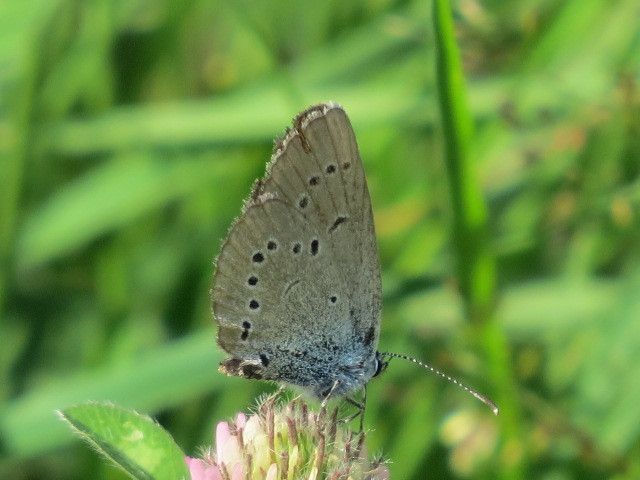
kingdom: Animalia
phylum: Arthropoda
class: Insecta
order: Lepidoptera
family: Lycaenidae
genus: Cyaniris
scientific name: Cyaniris semiargus
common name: Mazarine blue
